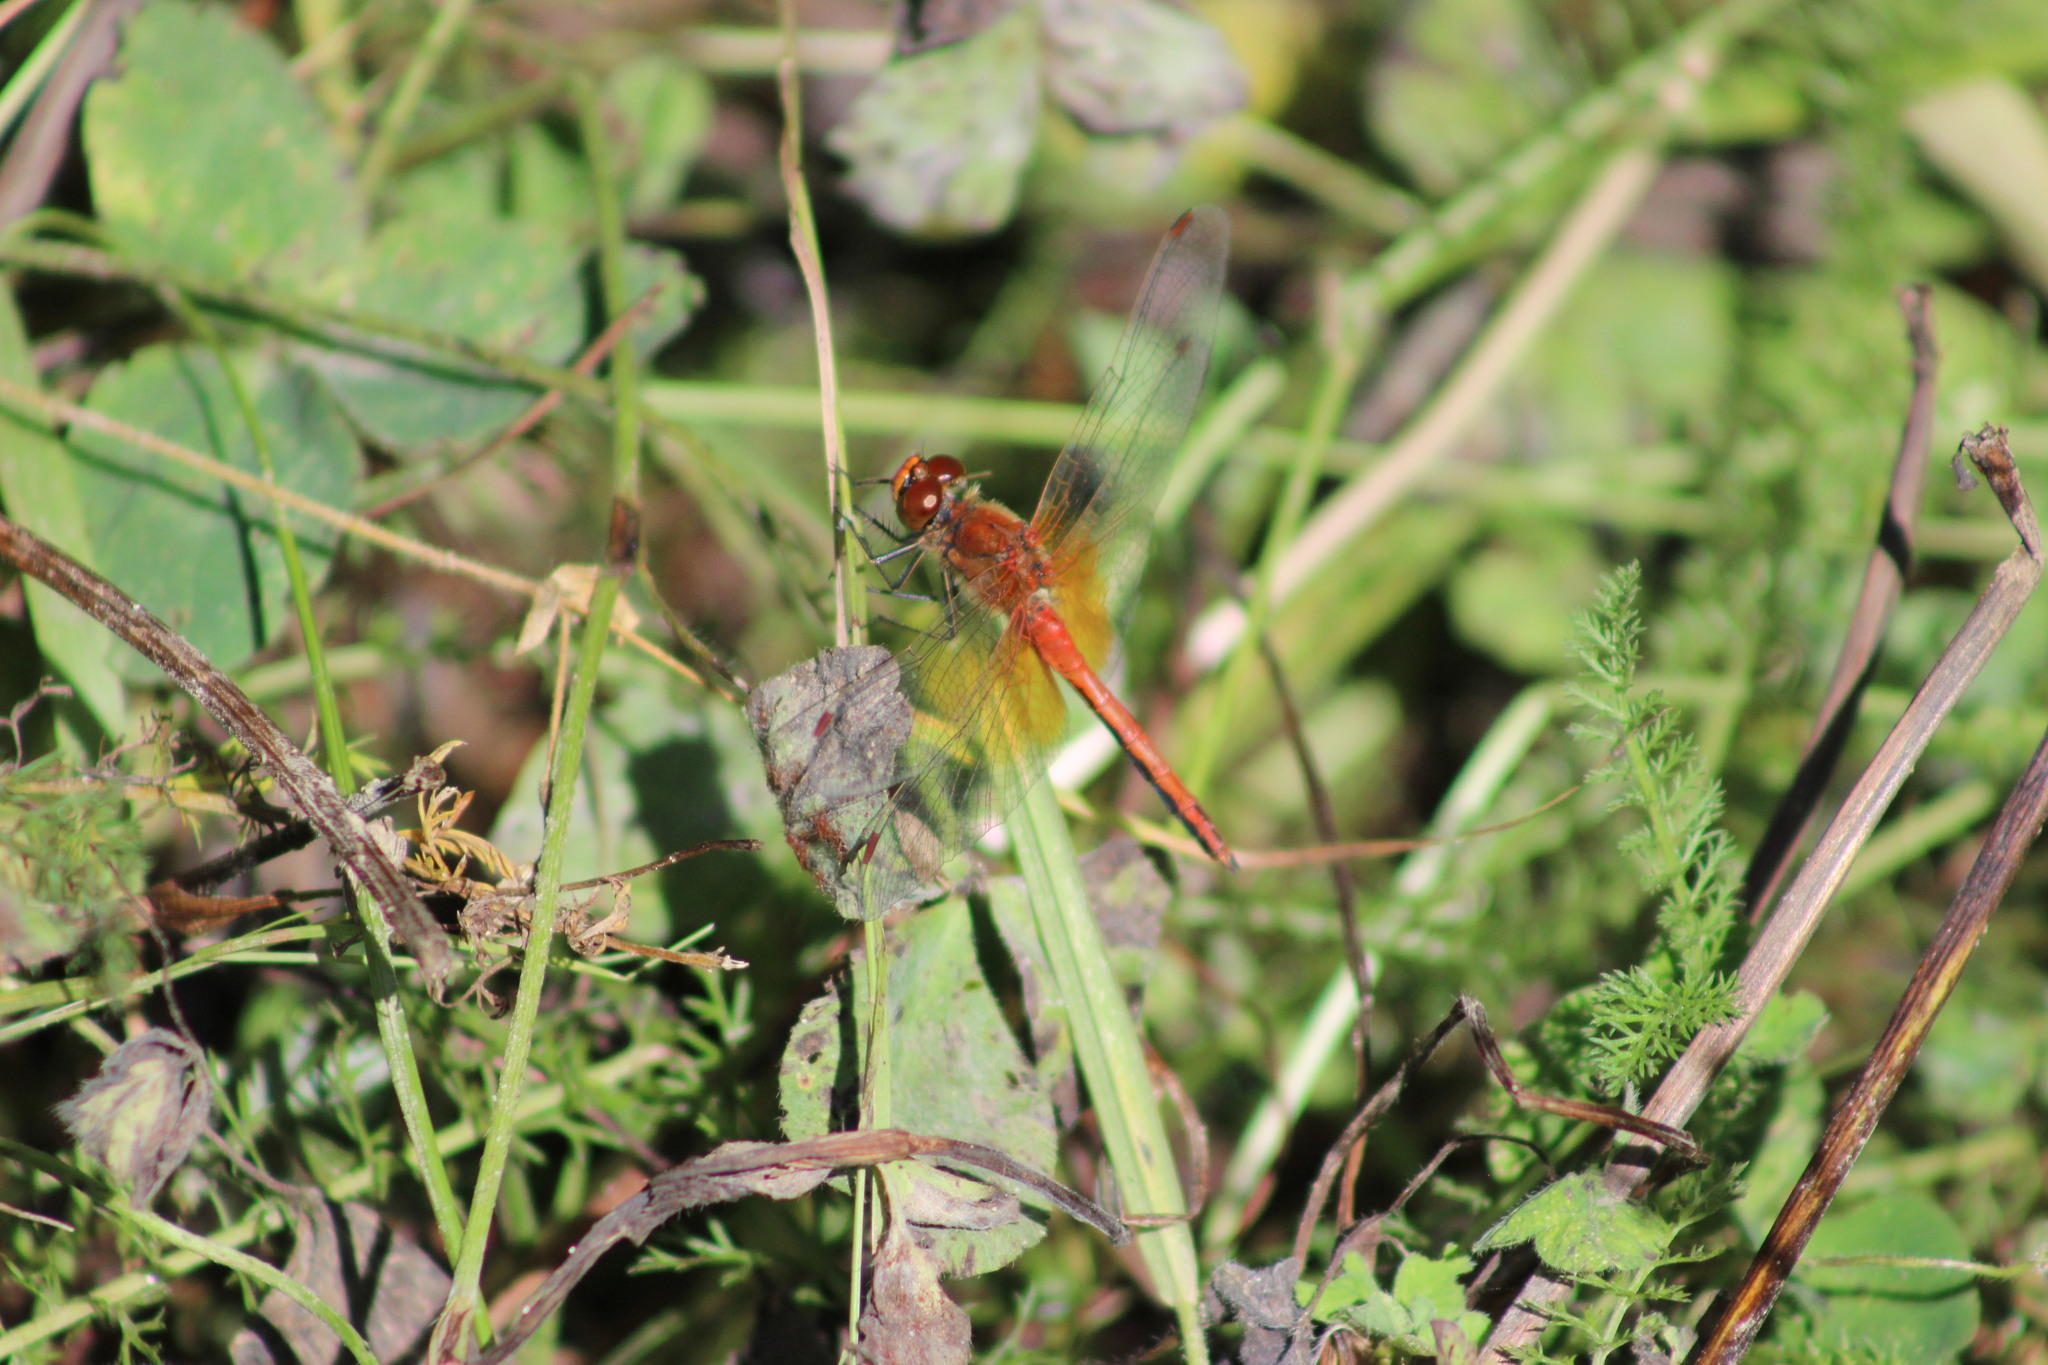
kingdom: Animalia
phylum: Arthropoda
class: Insecta
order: Odonata
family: Libellulidae
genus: Sympetrum
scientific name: Sympetrum flaveolum
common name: Yellow-winged darter
